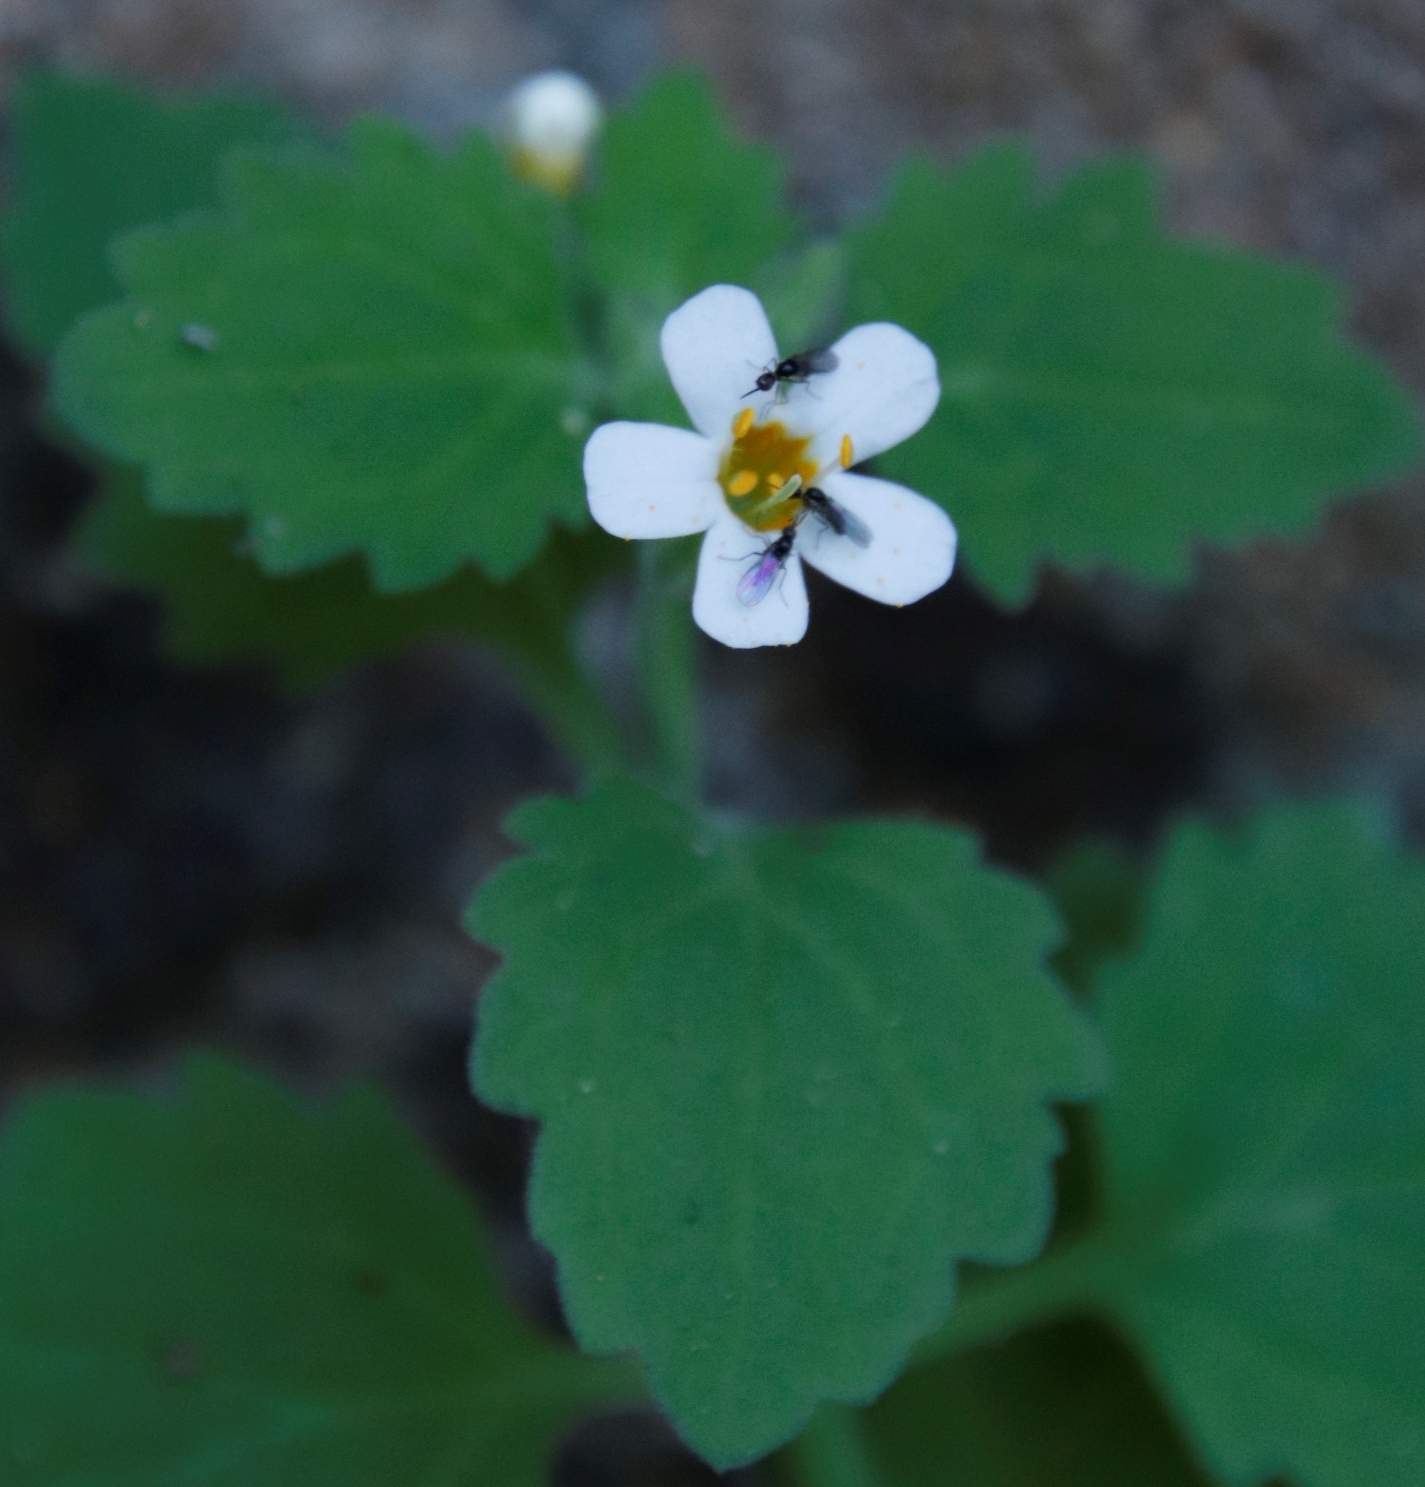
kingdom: Plantae
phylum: Tracheophyta
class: Magnoliopsida
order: Lamiales
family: Scrophulariaceae
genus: Chaenostoma
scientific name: Chaenostoma floribundum
